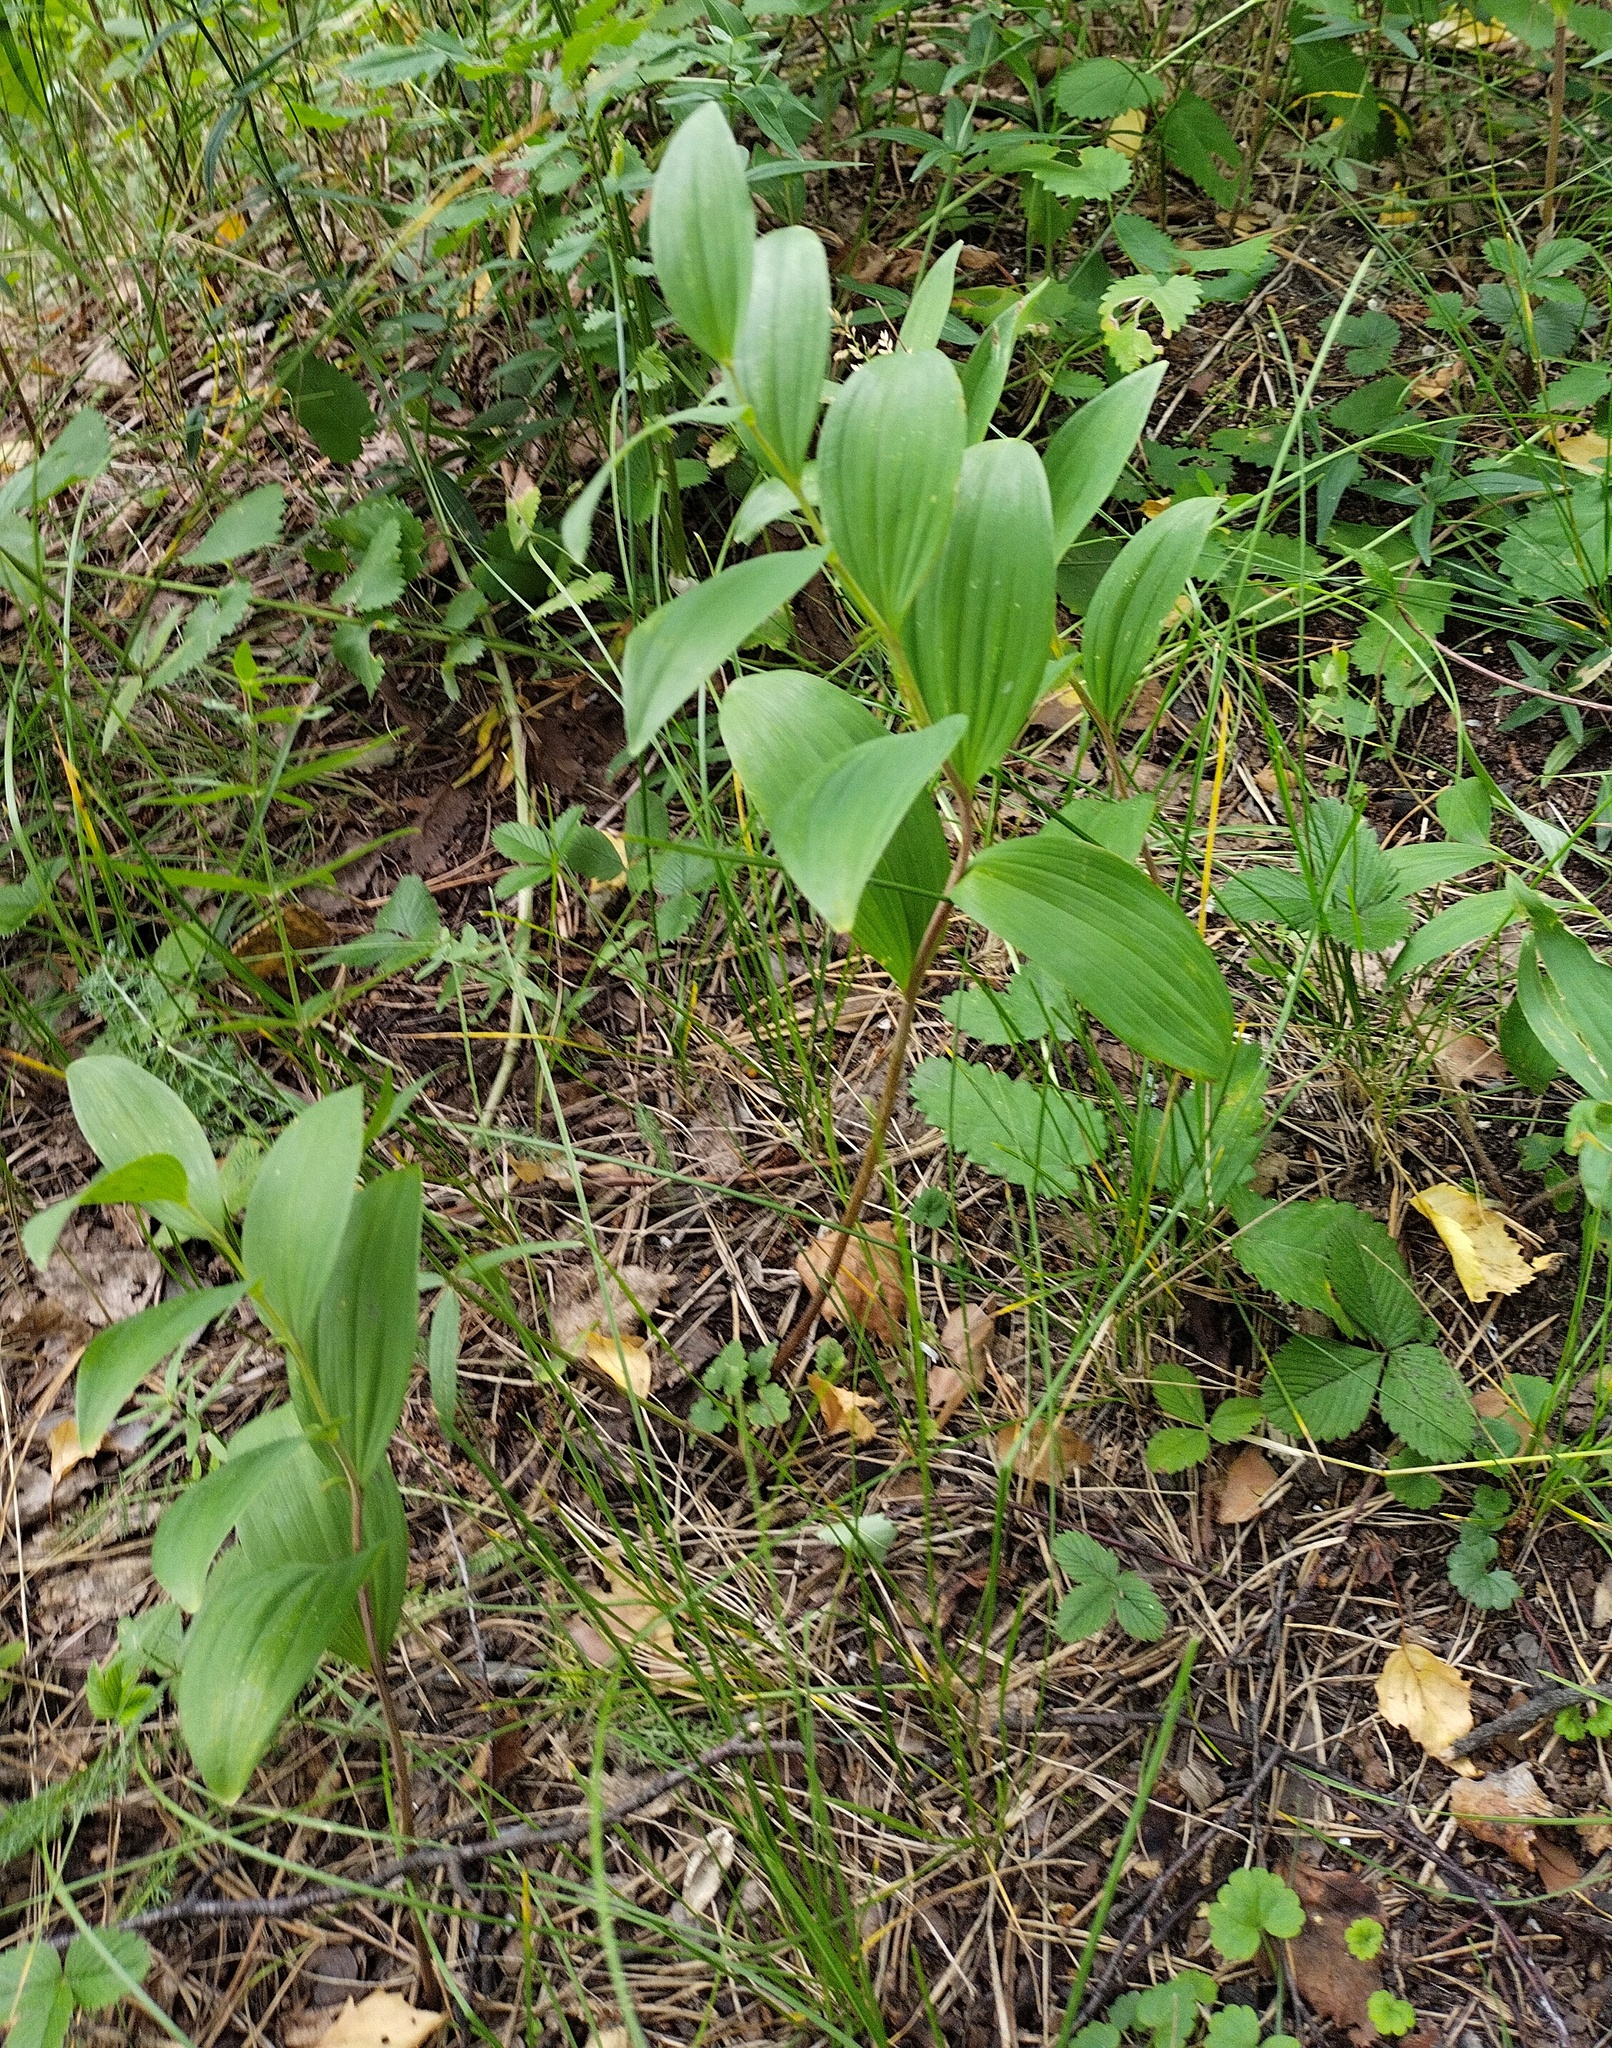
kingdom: Plantae
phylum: Tracheophyta
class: Liliopsida
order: Asparagales
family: Asparagaceae
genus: Polygonatum
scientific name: Polygonatum odoratum
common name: Angular solomon's-seal
